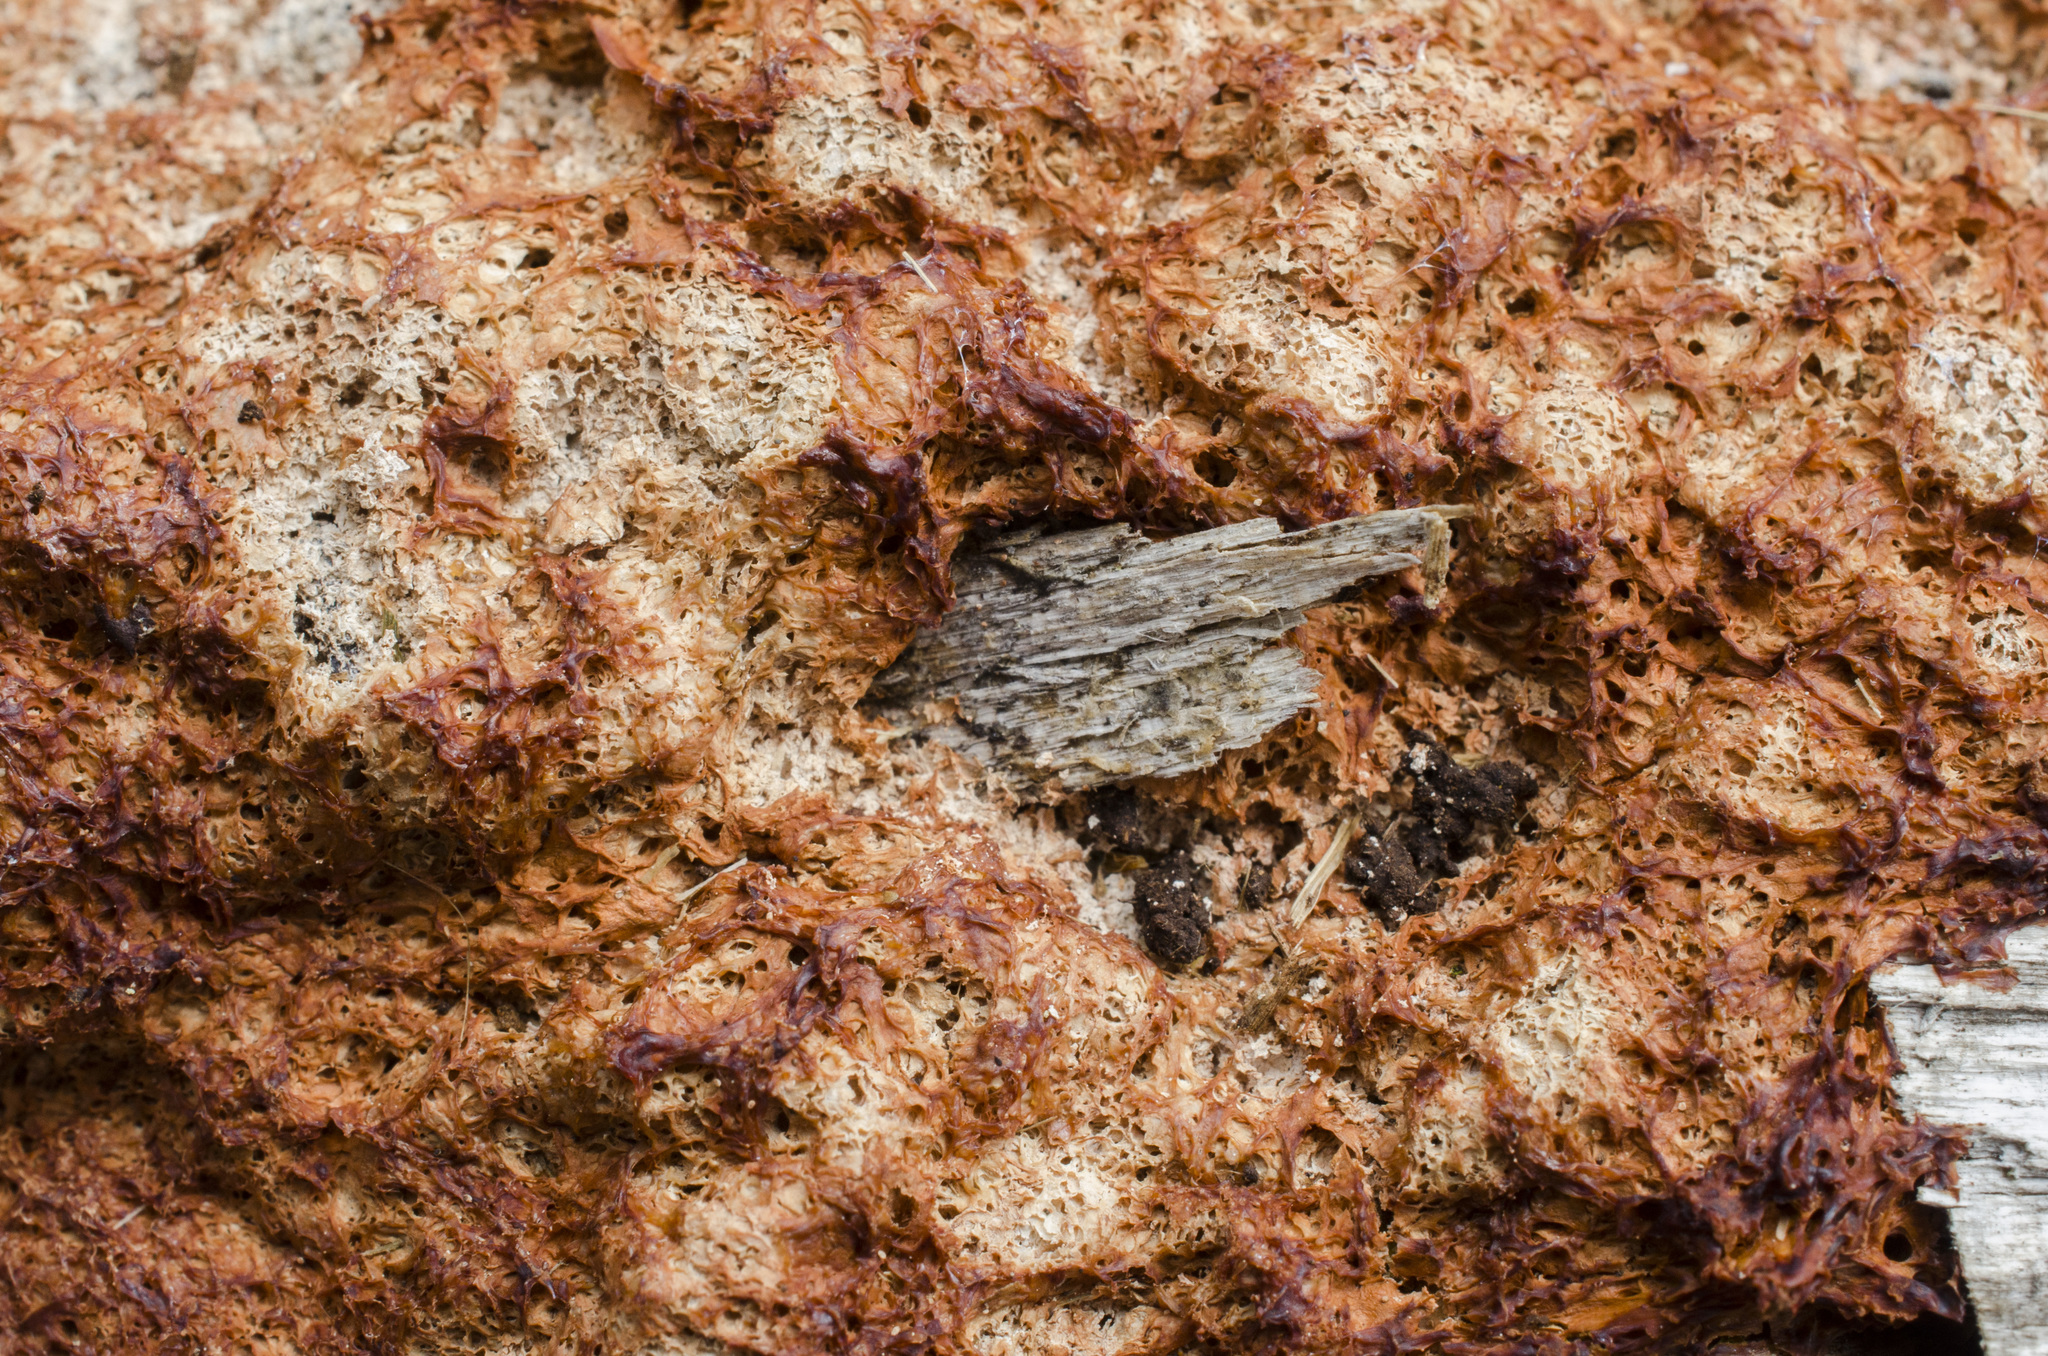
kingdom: Protozoa
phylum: Mycetozoa
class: Myxomycetes
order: Physarales
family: Physaraceae
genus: Fuligo
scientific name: Fuligo septica
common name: Dog vomit slime mold
